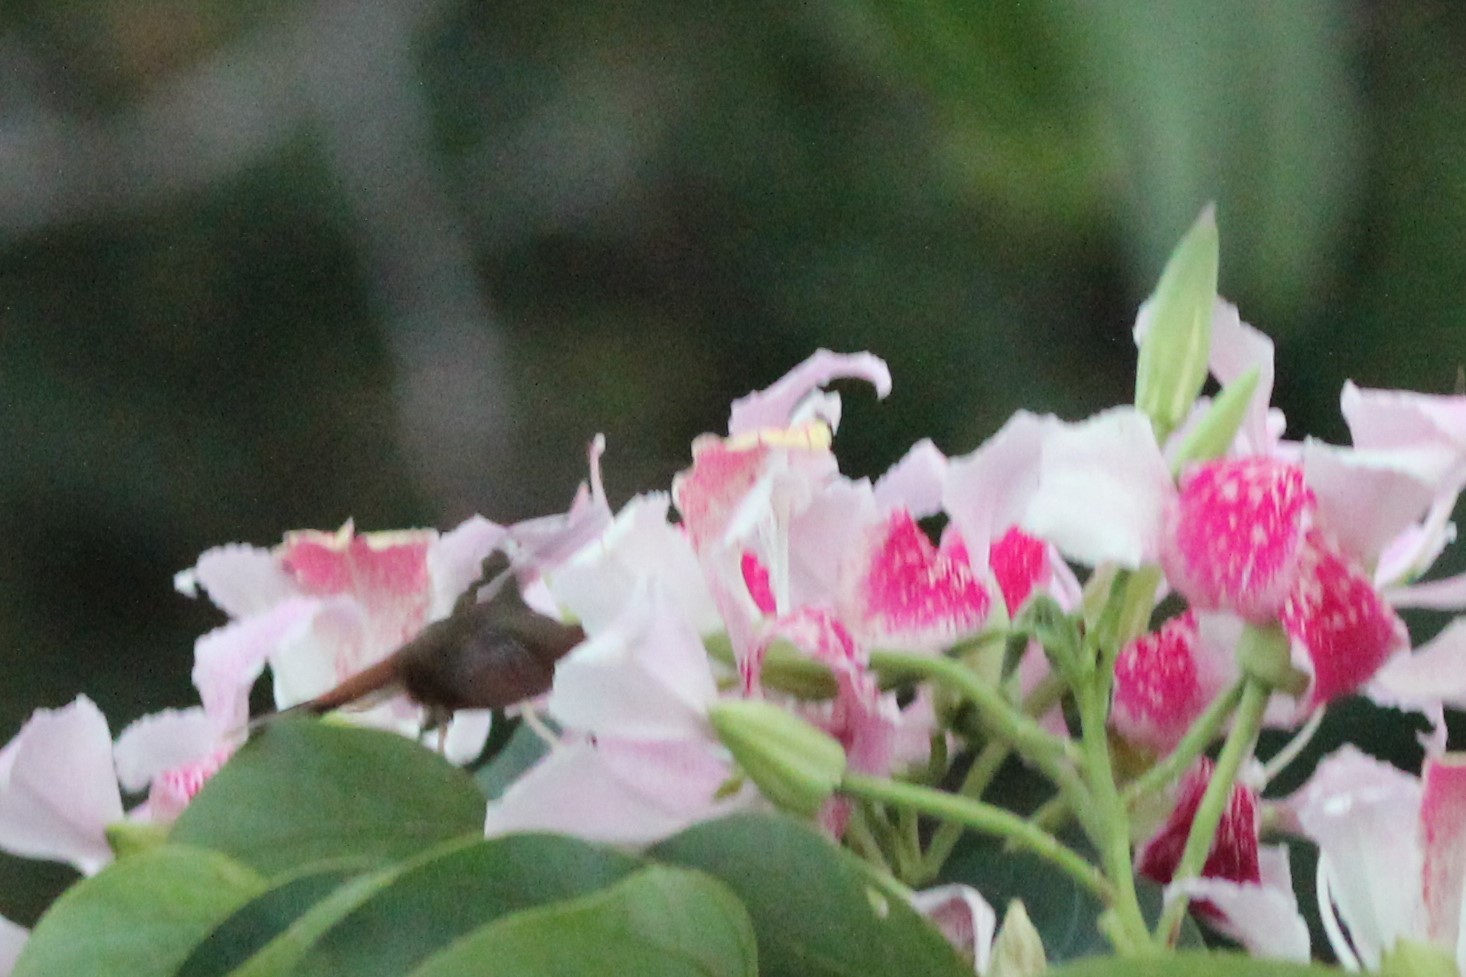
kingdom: Animalia
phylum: Chordata
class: Aves
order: Apodiformes
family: Trochilidae
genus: Phaethornis
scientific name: Phaethornis striigularis
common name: Stripe-throated hermit
